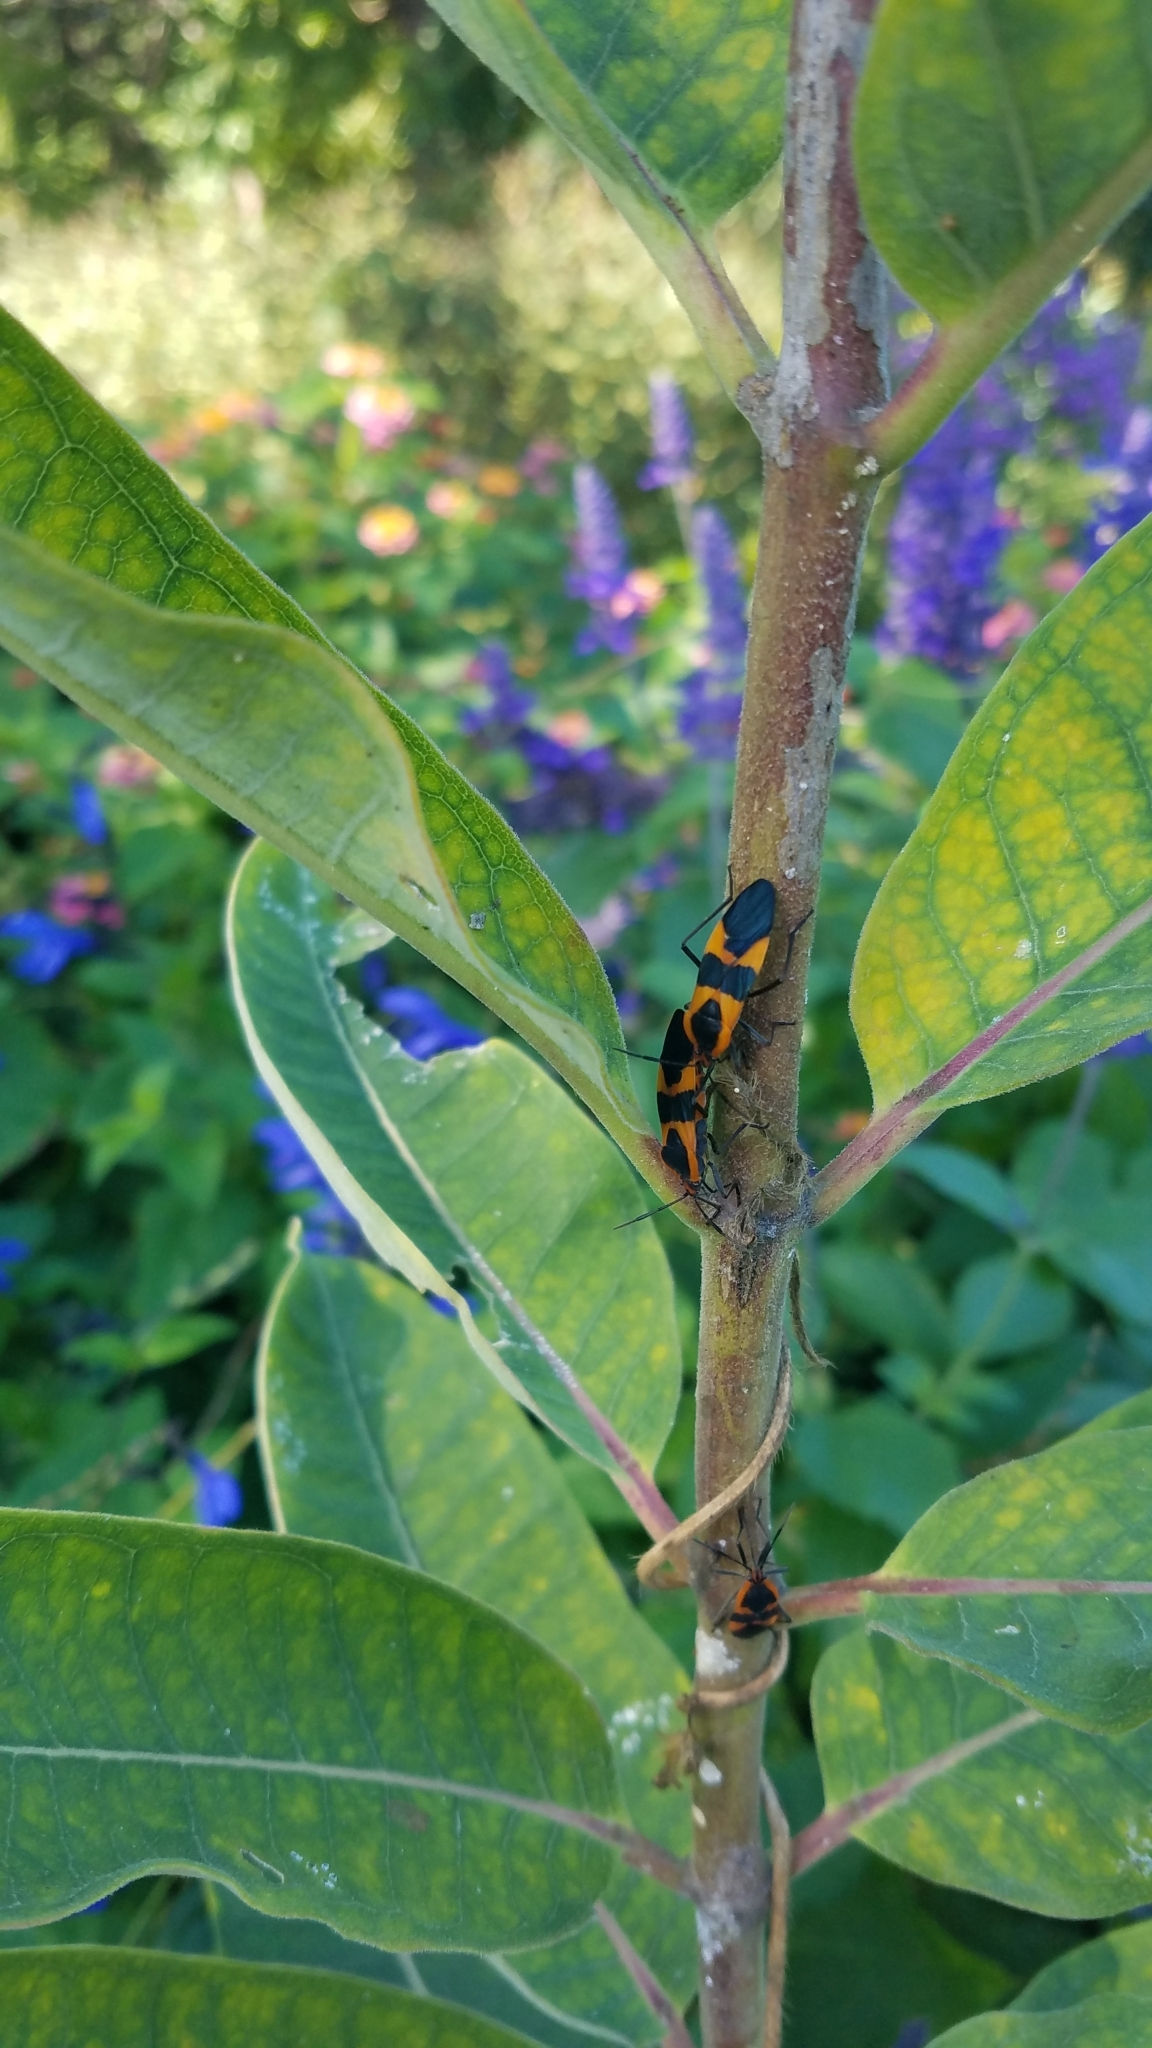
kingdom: Animalia
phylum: Arthropoda
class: Insecta
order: Hemiptera
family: Lygaeidae
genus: Oncopeltus
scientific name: Oncopeltus fasciatus
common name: Large milkweed bug
